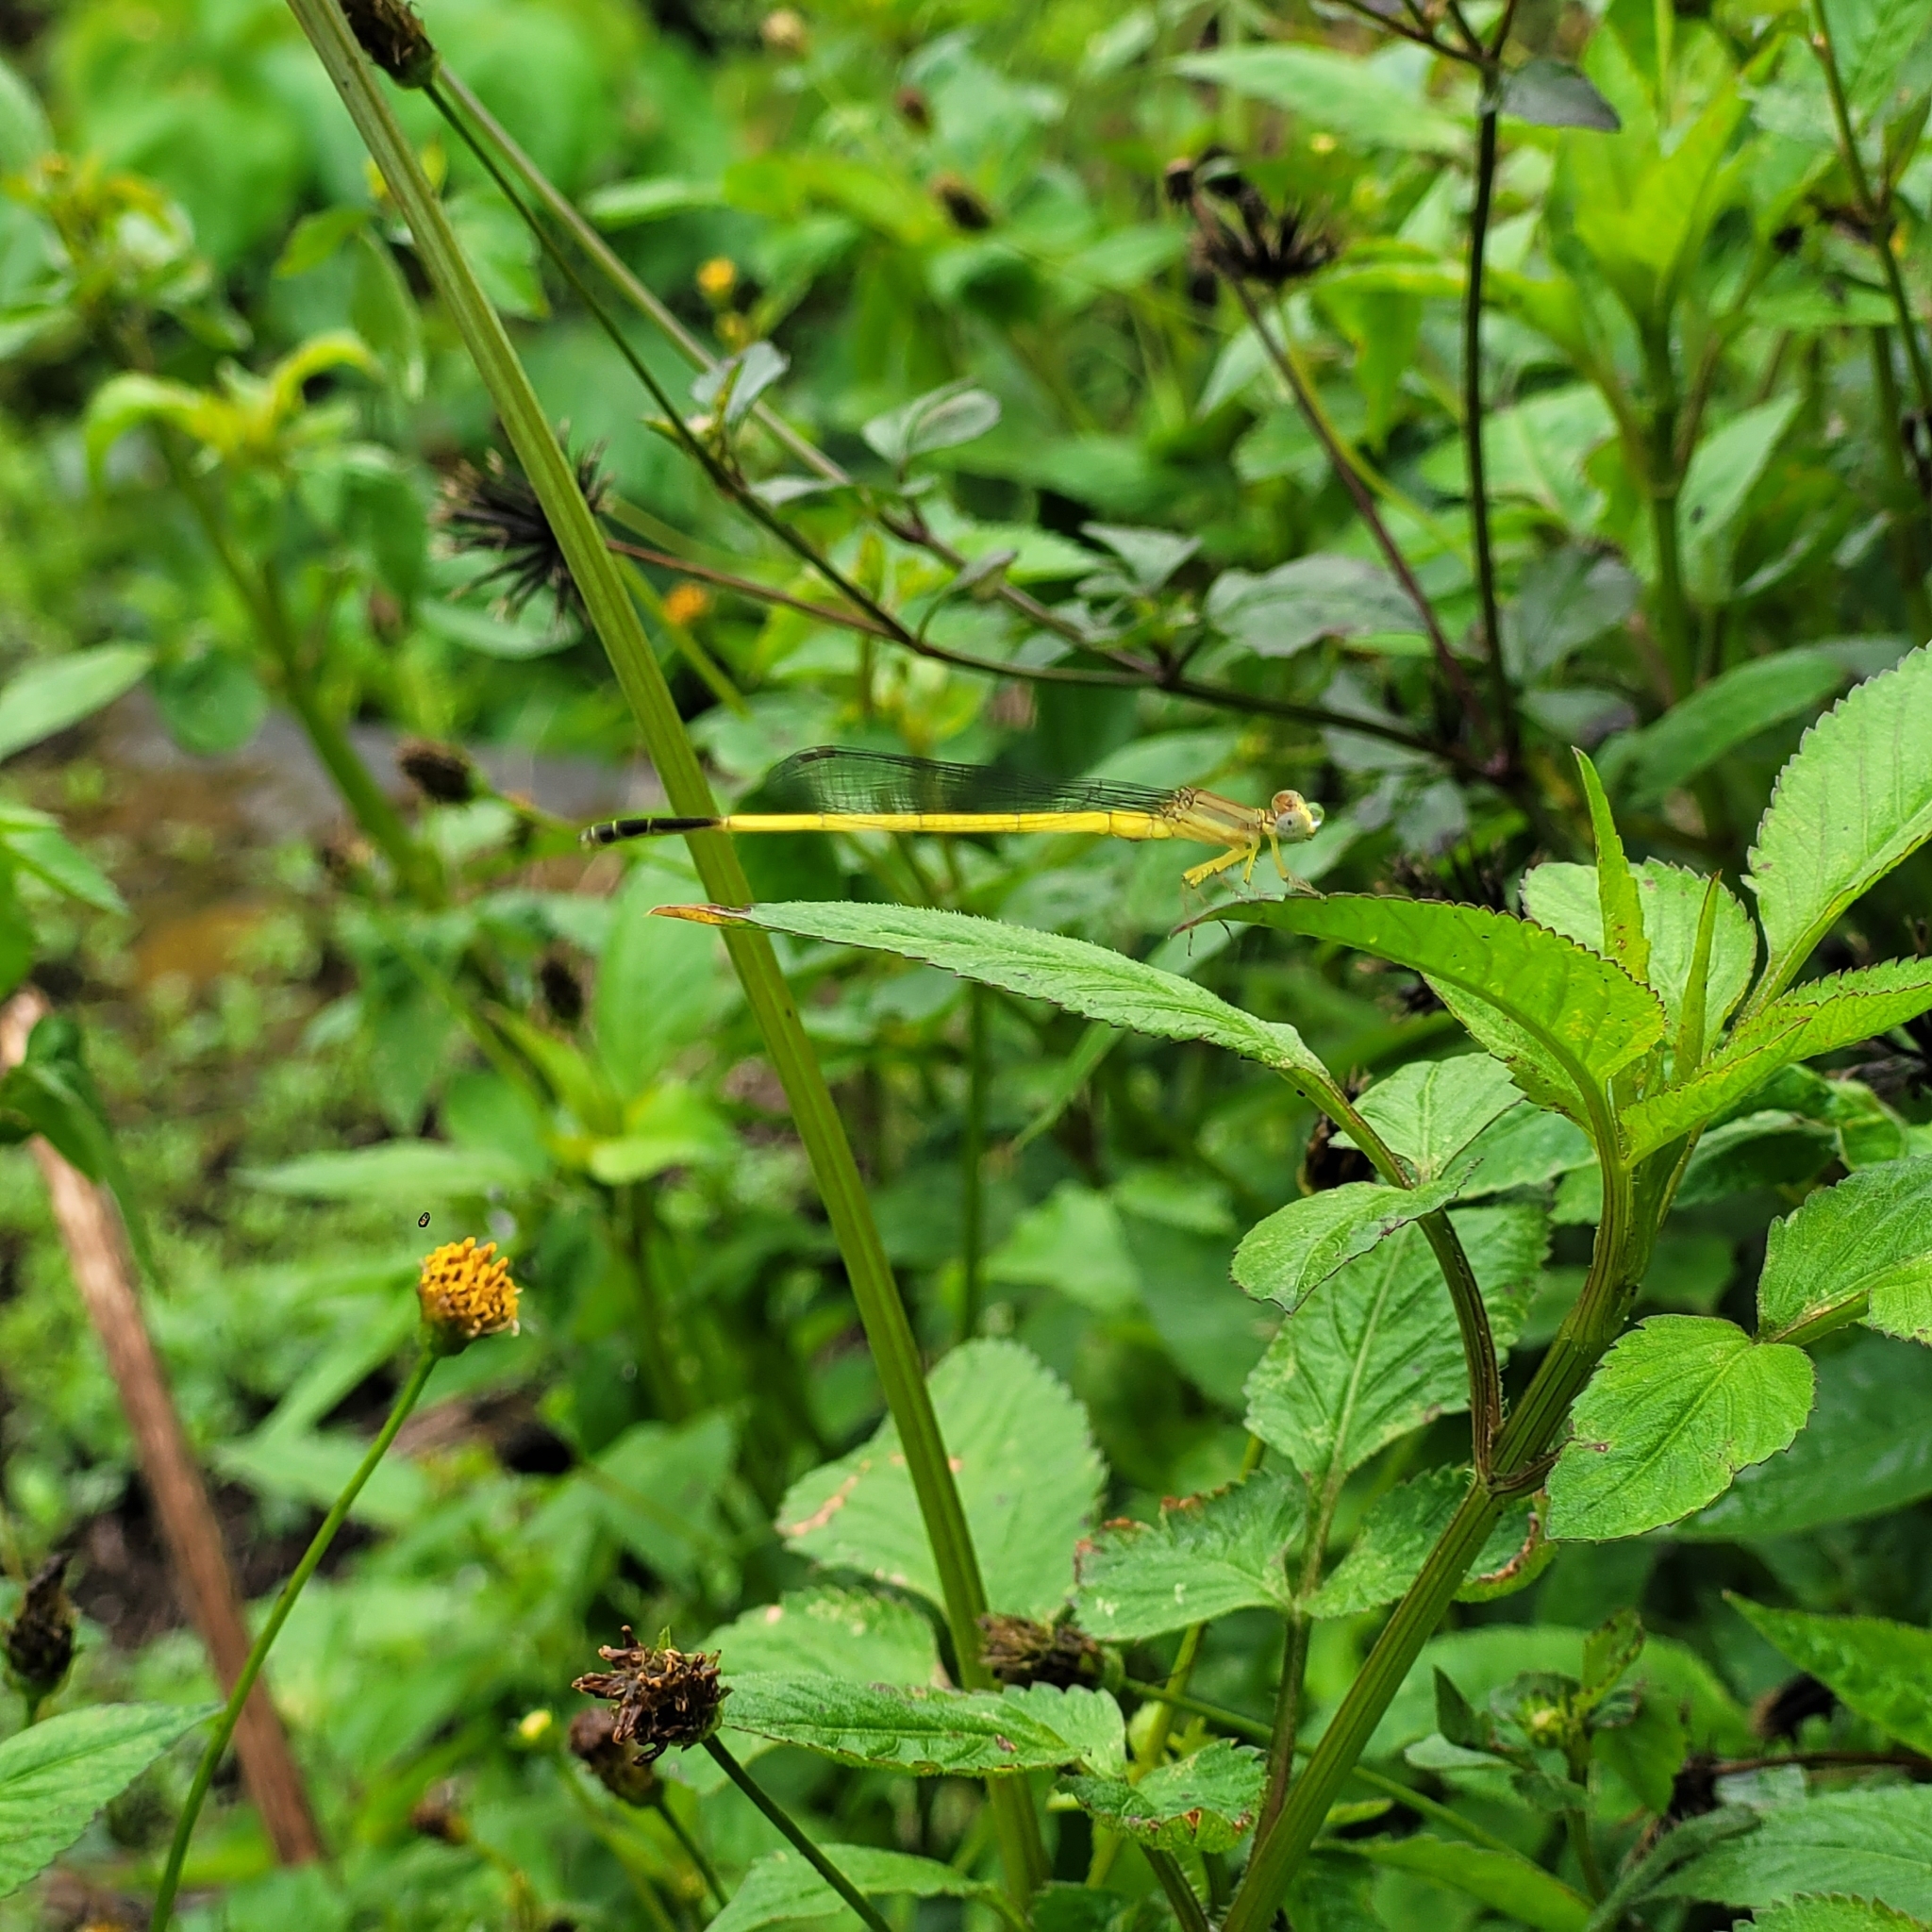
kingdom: Animalia
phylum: Arthropoda
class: Insecta
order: Odonata
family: Coenagrionidae
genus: Ceriagrion
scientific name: Ceriagrion fallax
